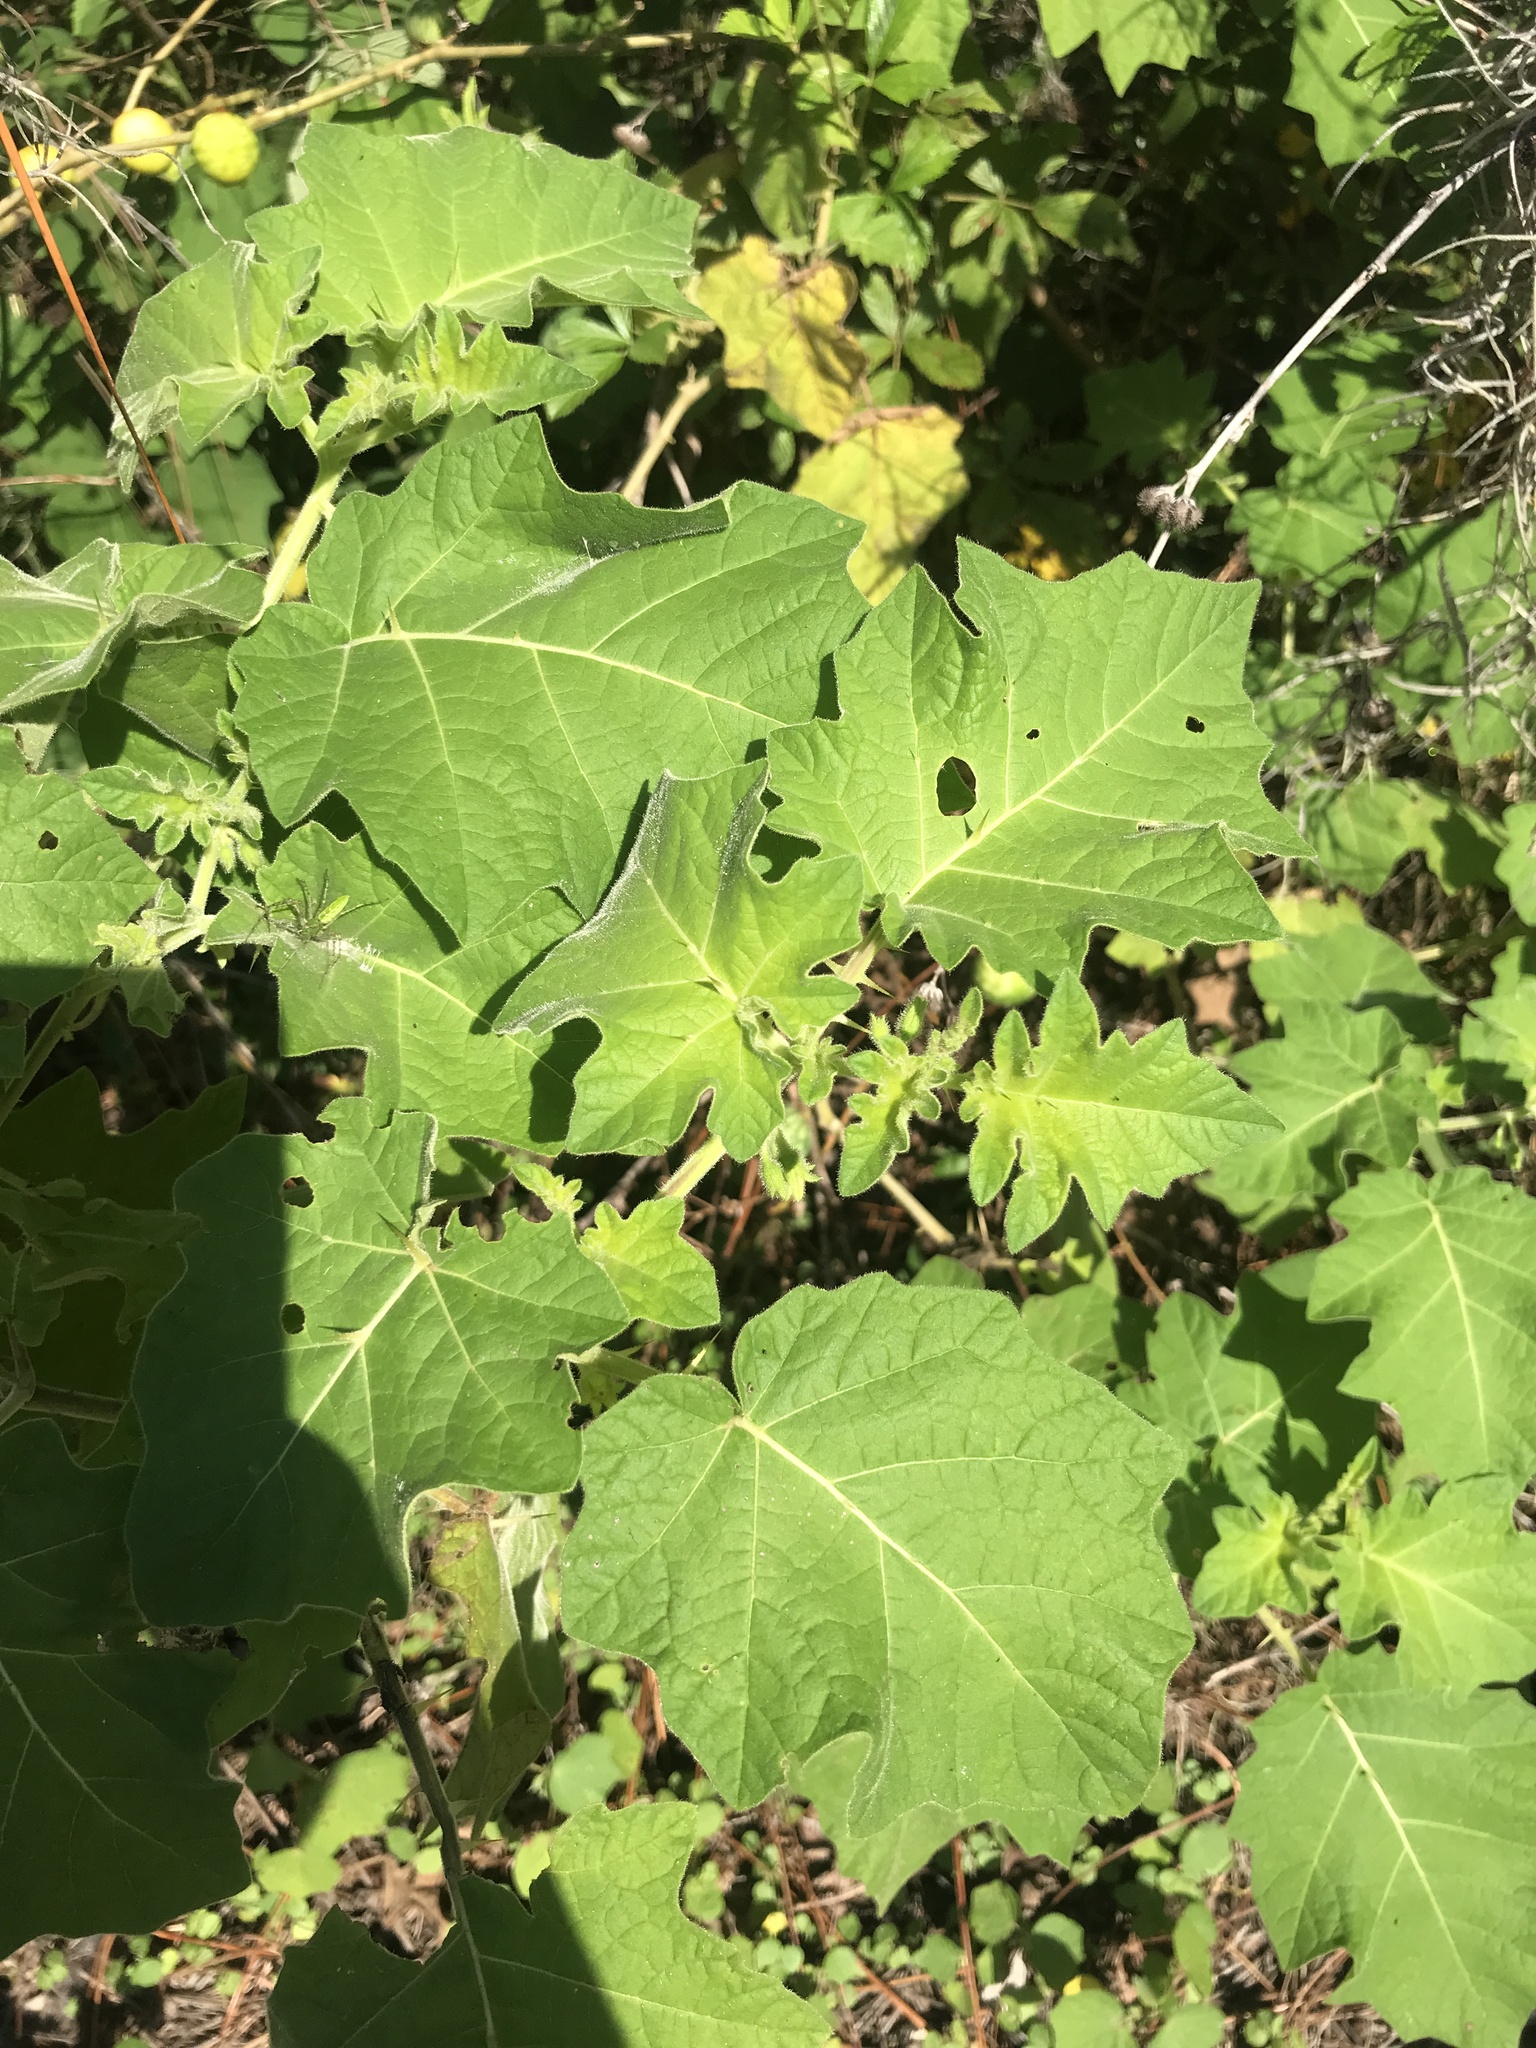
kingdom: Plantae
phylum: Tracheophyta
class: Magnoliopsida
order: Solanales
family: Solanaceae
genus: Solanum
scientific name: Solanum viarum
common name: Tropical soda apple
